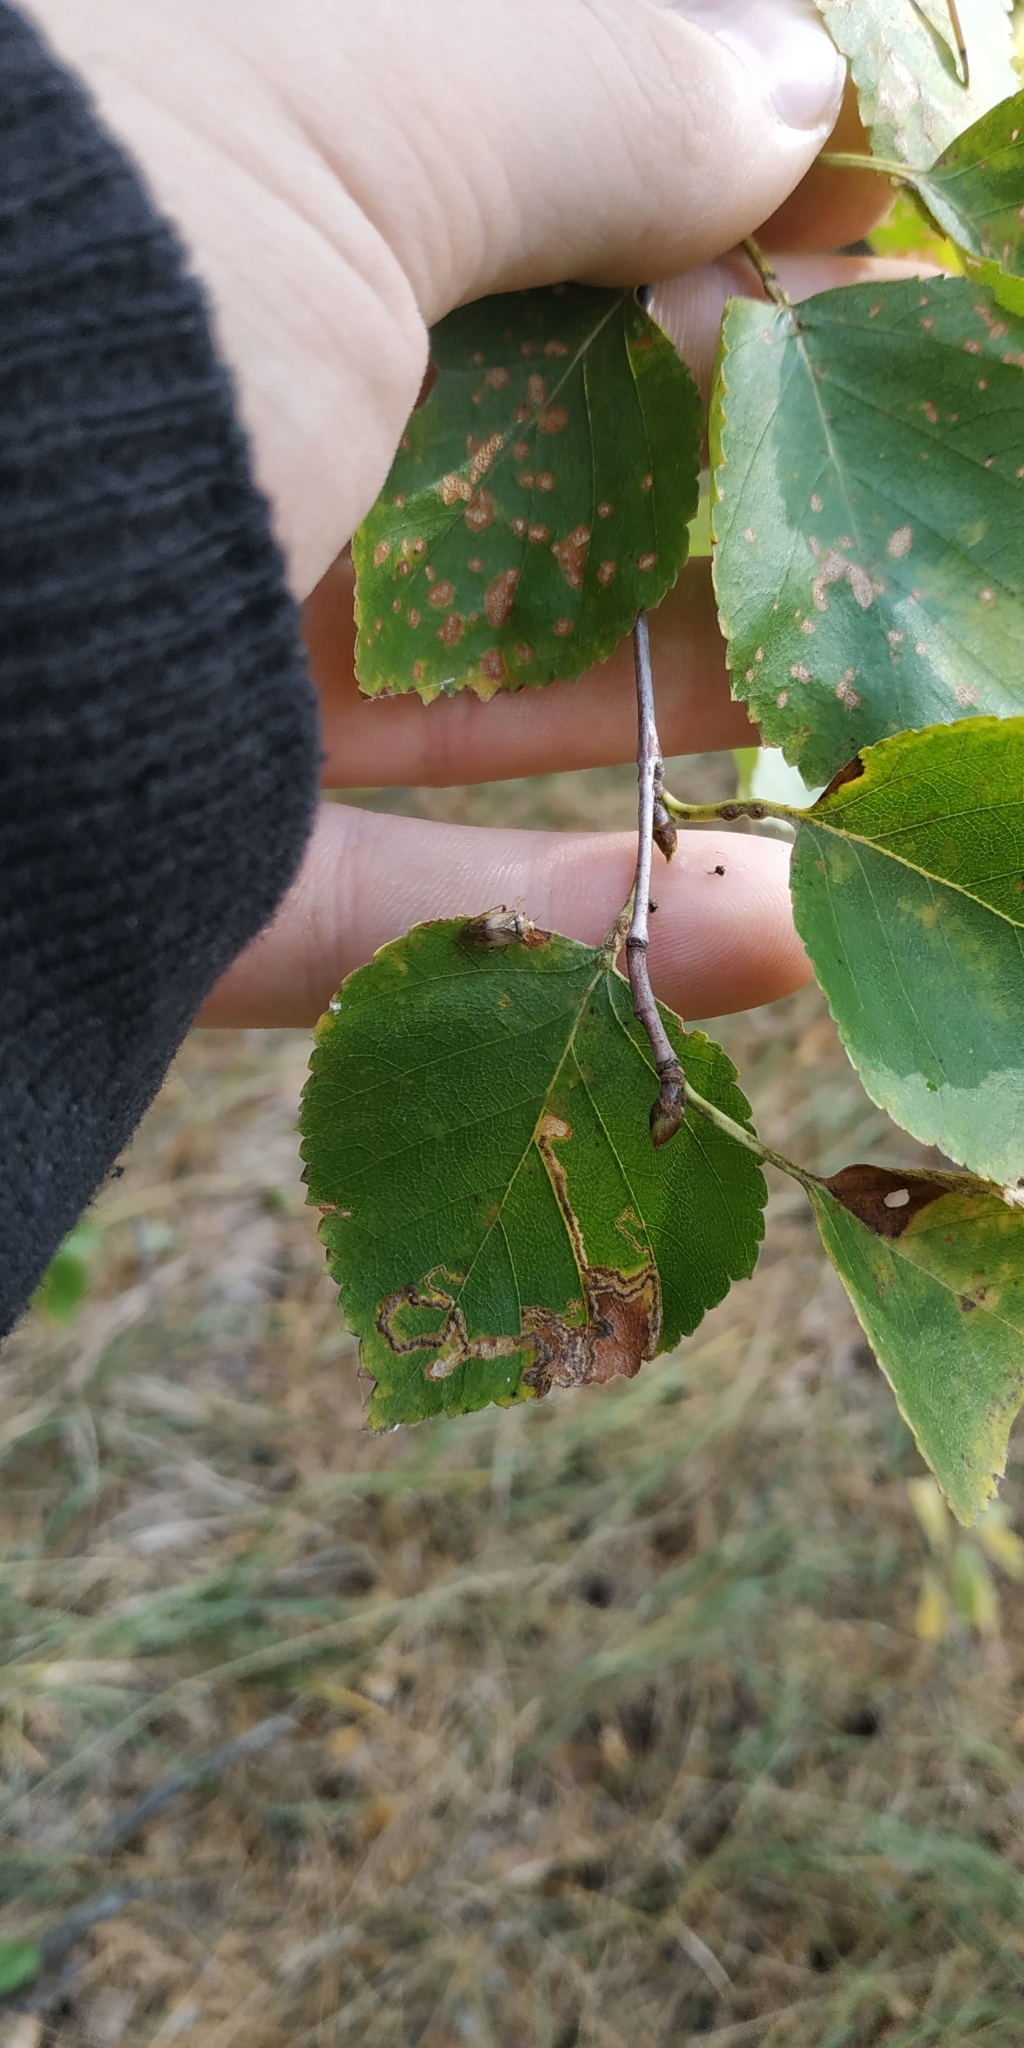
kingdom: Plantae
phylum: Tracheophyta
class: Magnoliopsida
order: Fagales
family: Betulaceae
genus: Betula
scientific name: Betula pendula
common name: Silver birch
